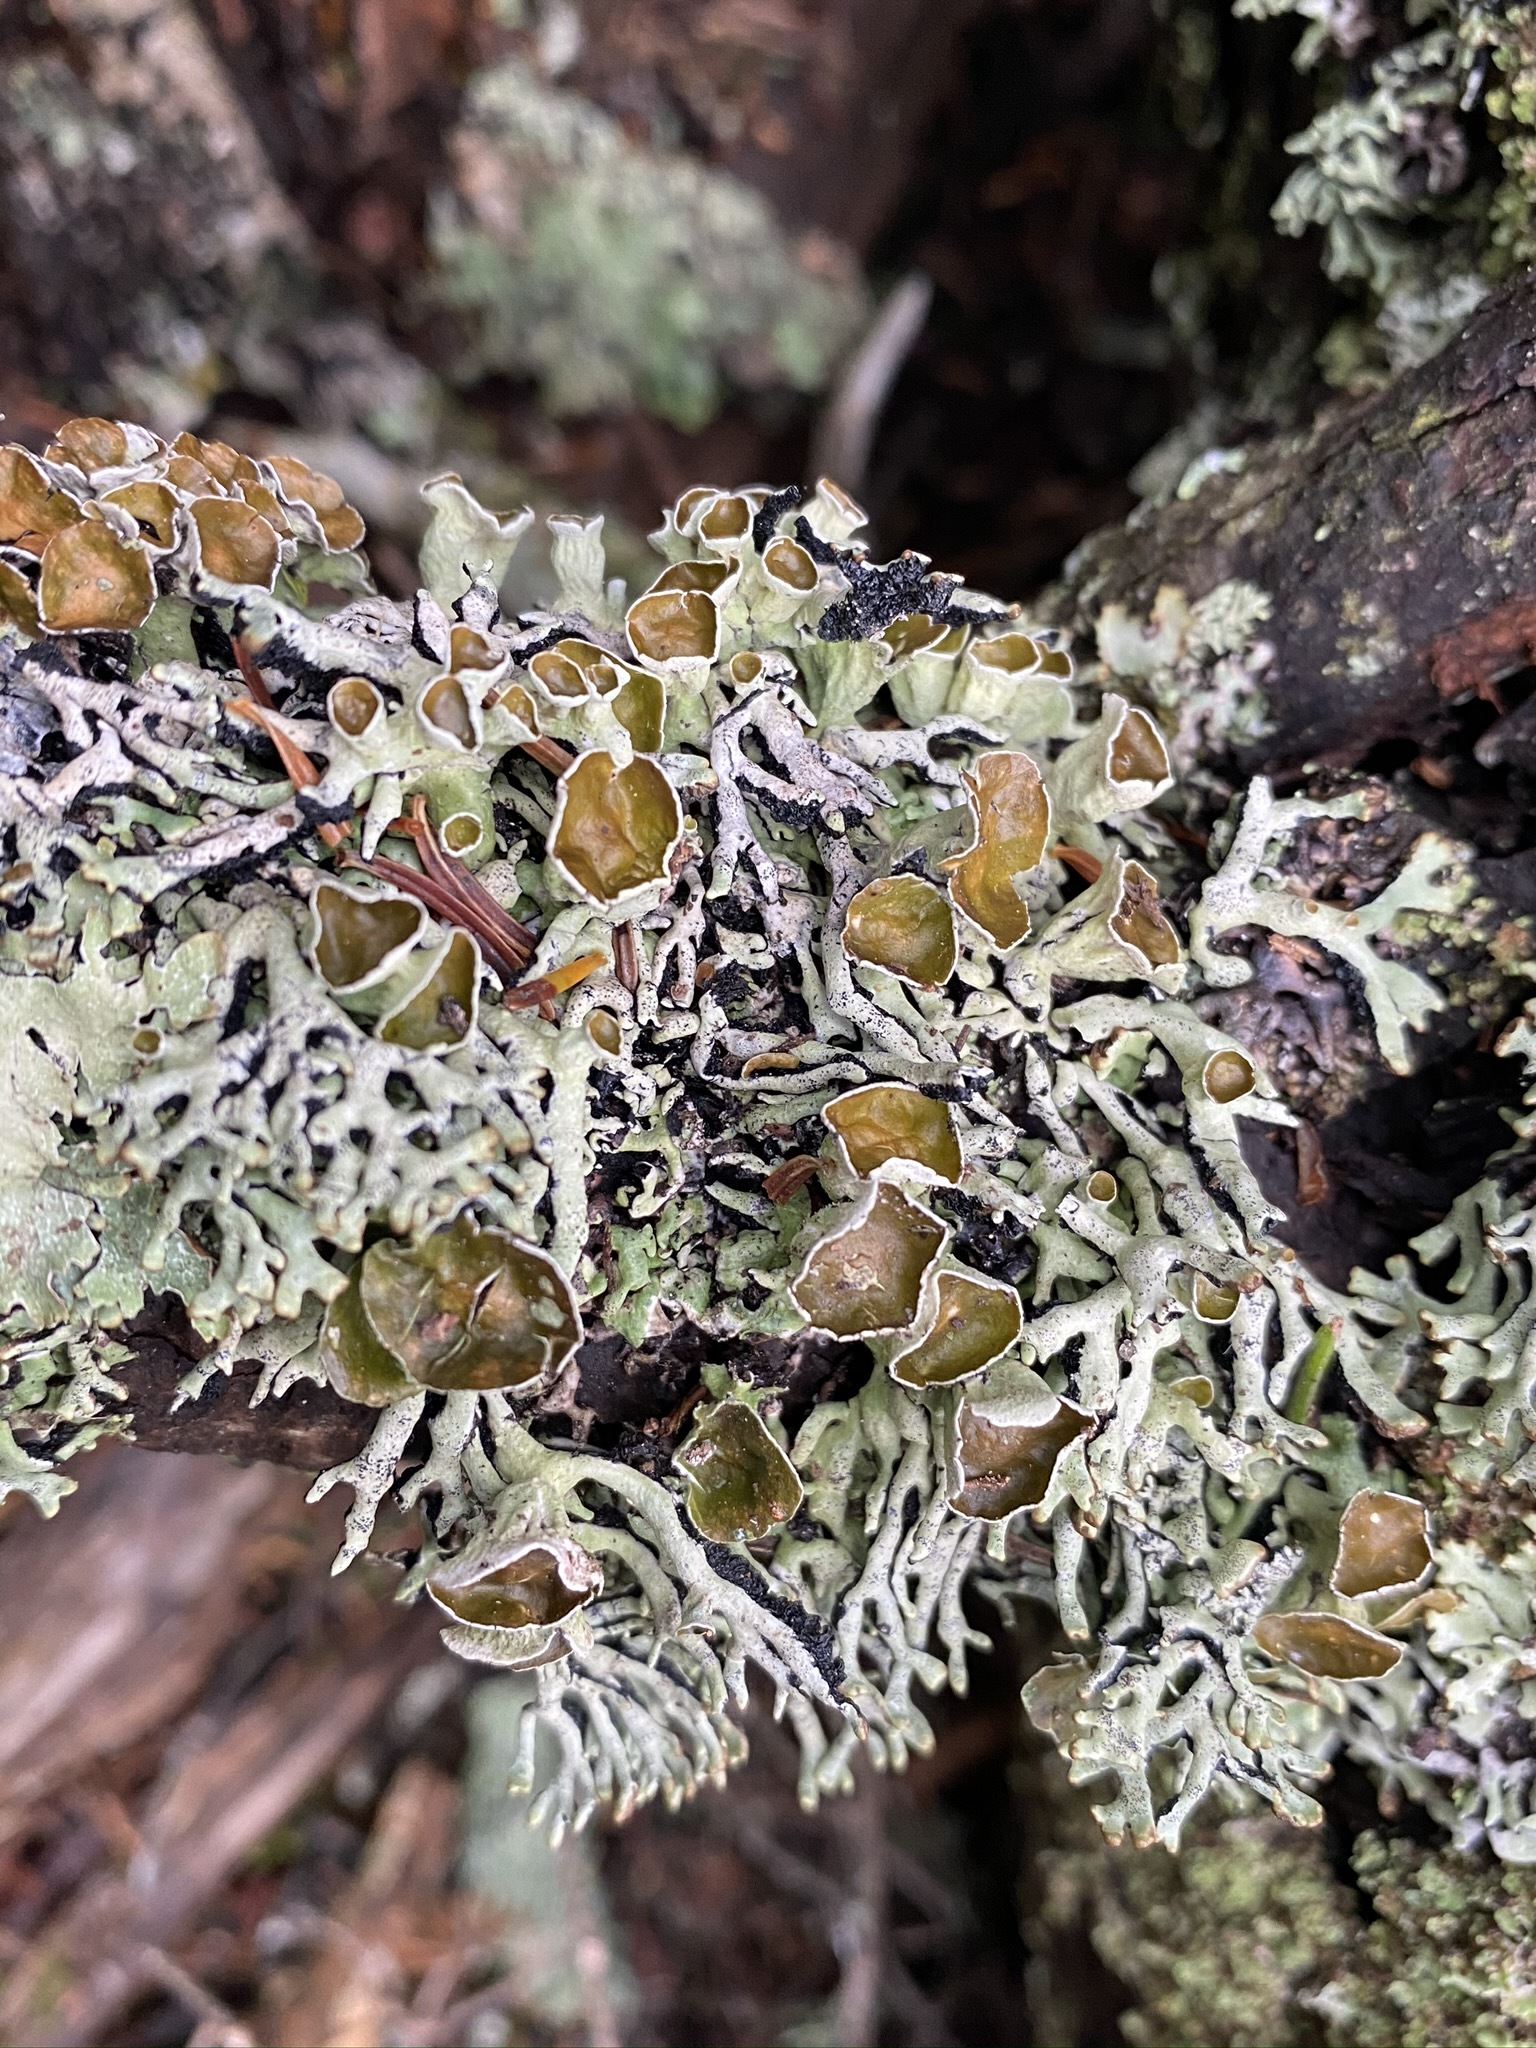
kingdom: Fungi
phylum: Ascomycota
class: Lecanoromycetes
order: Lecanorales
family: Parmeliaceae
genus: Hypogymnia
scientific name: Hypogymnia krogiae
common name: Freckled tube lichen
